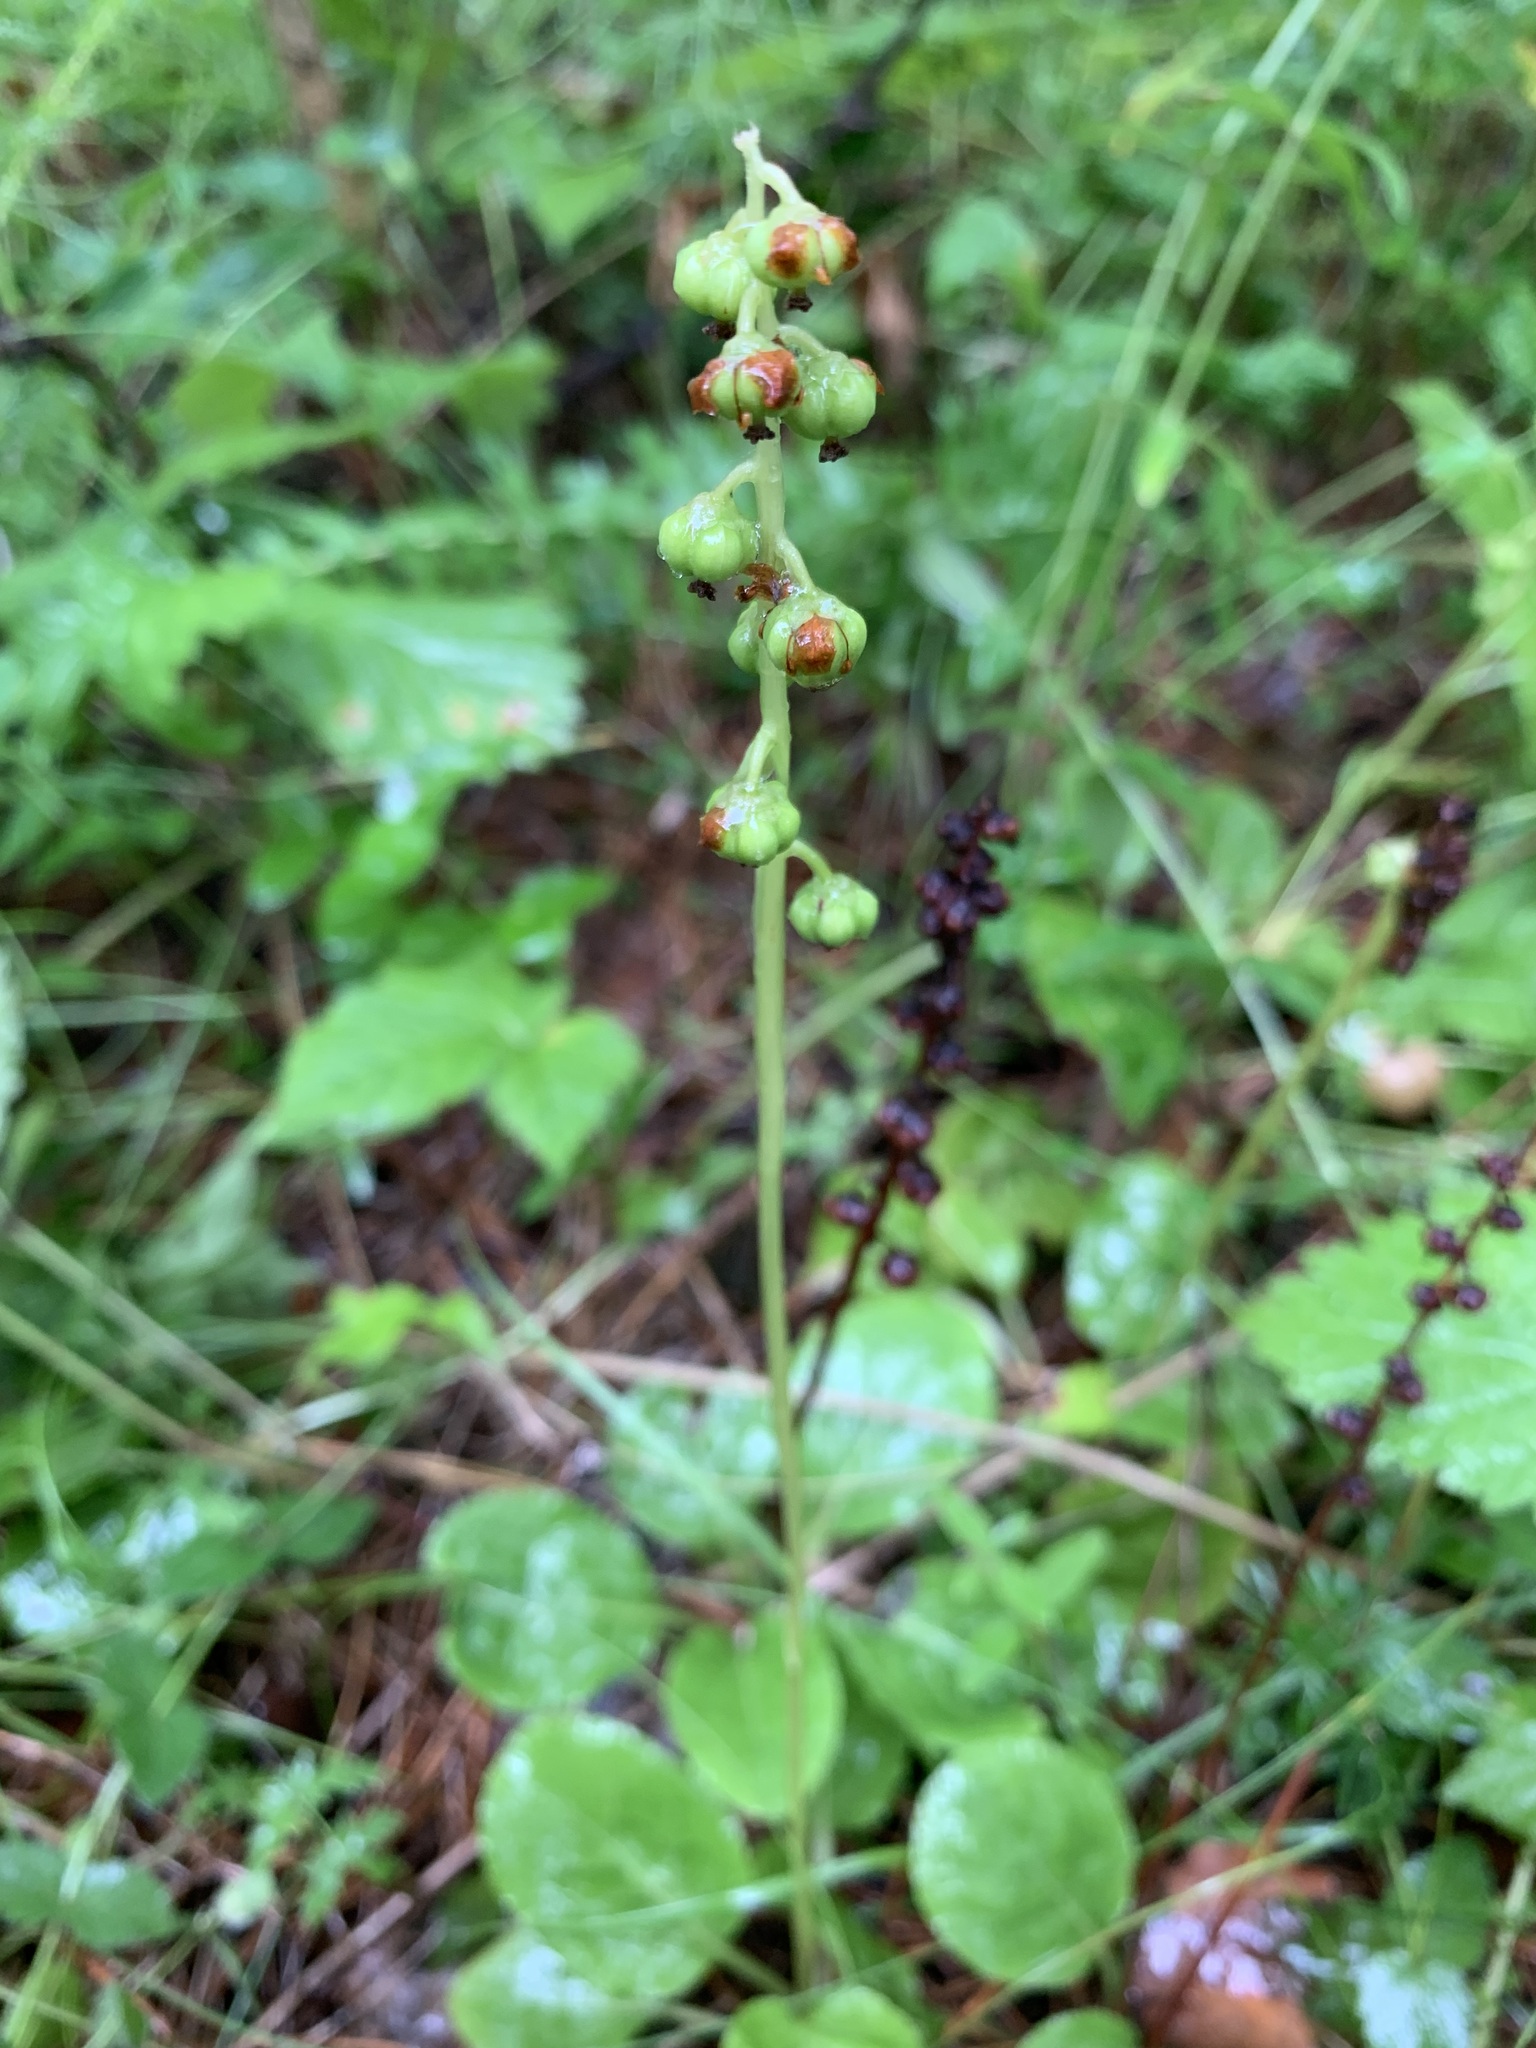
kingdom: Plantae
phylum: Tracheophyta
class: Magnoliopsida
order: Ericales
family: Ericaceae
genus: Pyrola
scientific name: Pyrola minor
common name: Common wintergreen
